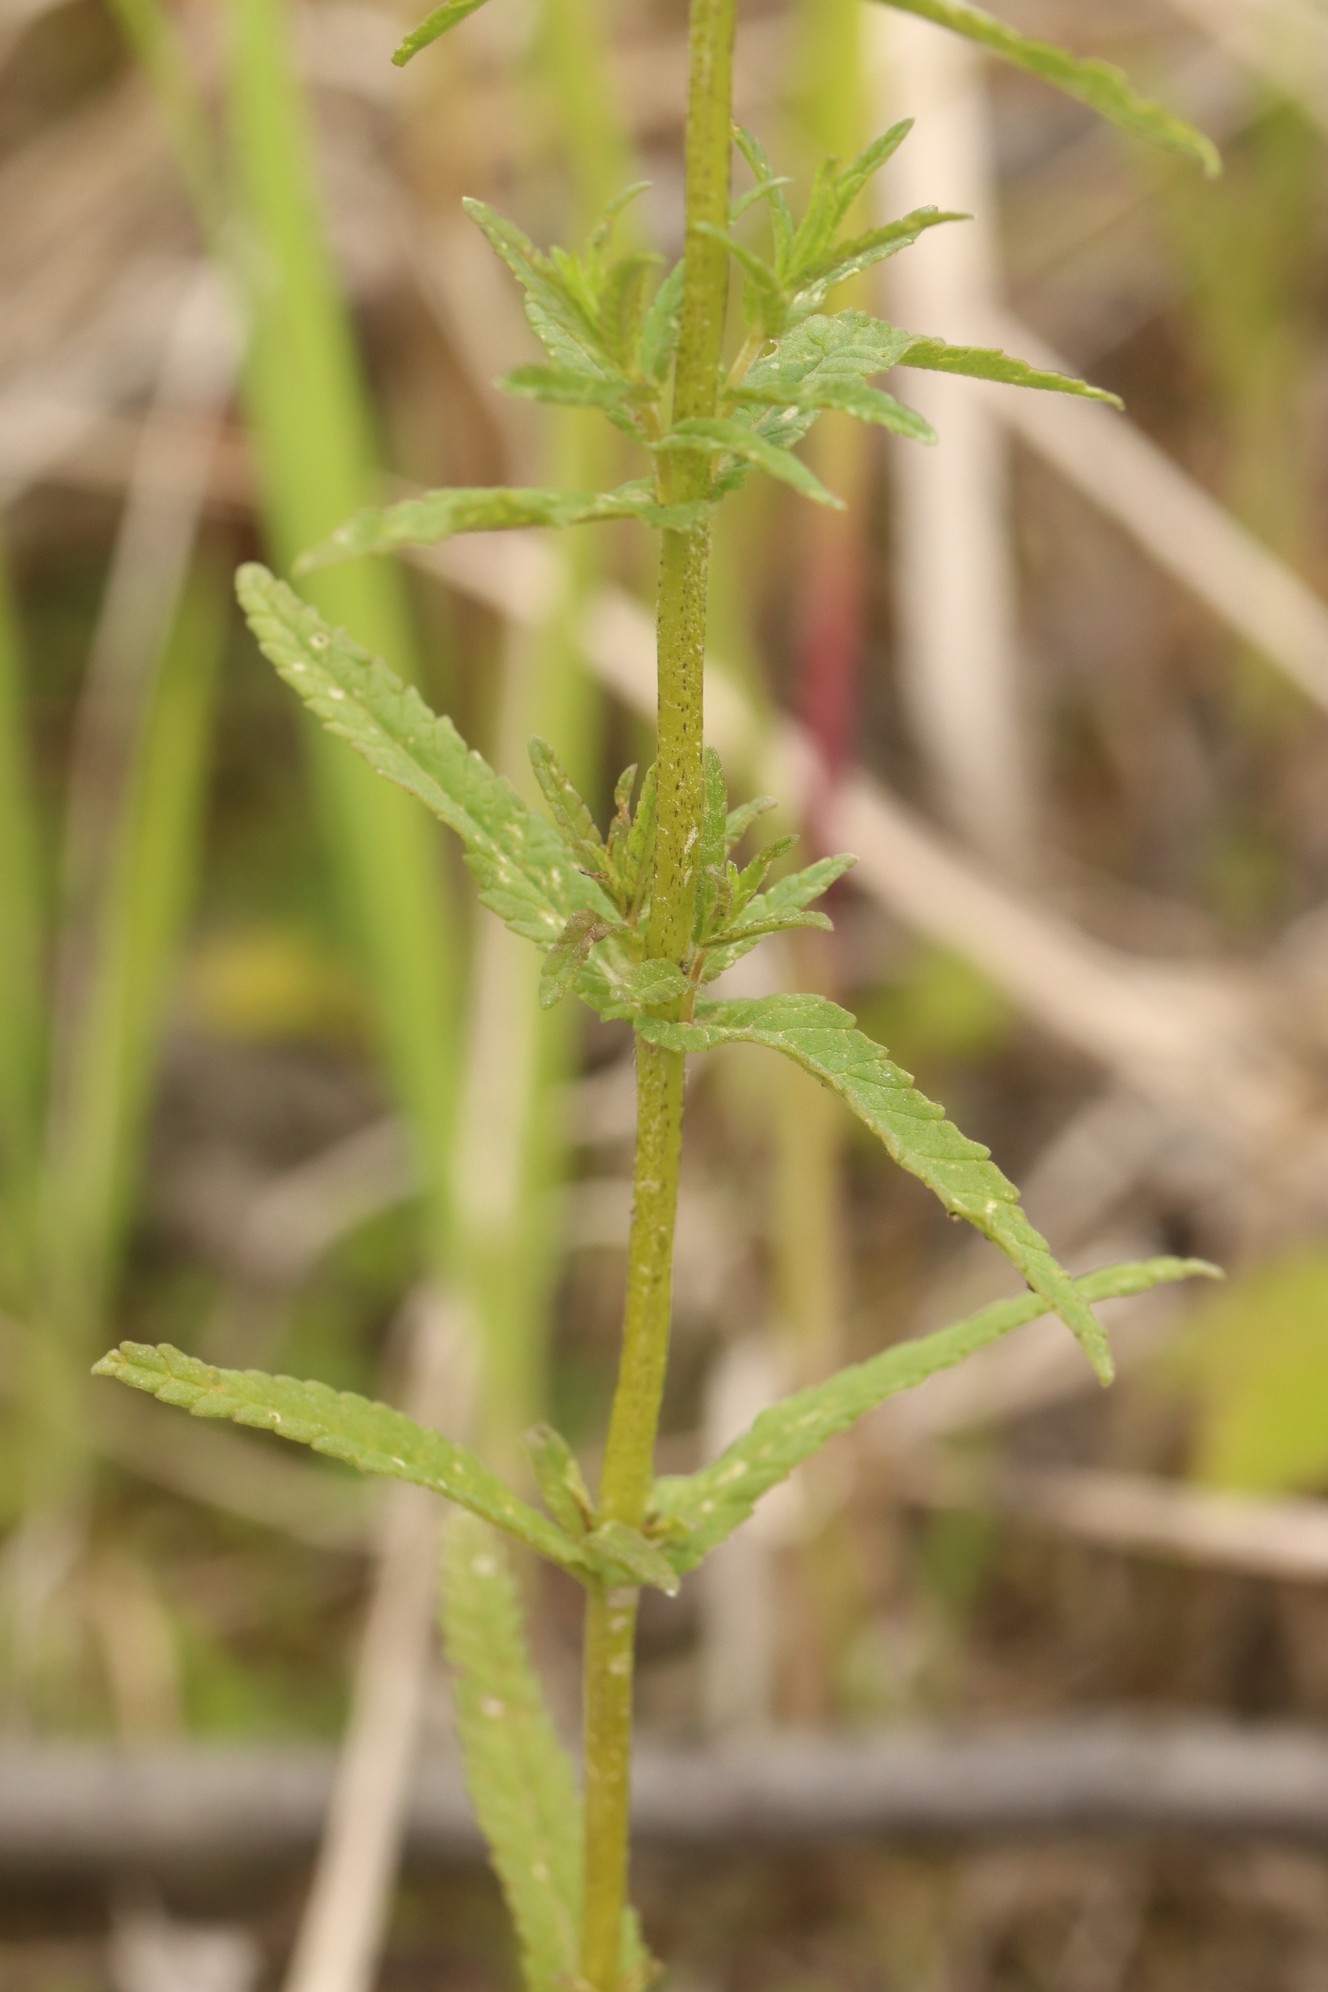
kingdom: Plantae
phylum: Tracheophyta
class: Magnoliopsida
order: Lamiales
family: Orobanchaceae
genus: Rhinanthus
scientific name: Rhinanthus minor
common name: Yellow-rattle
